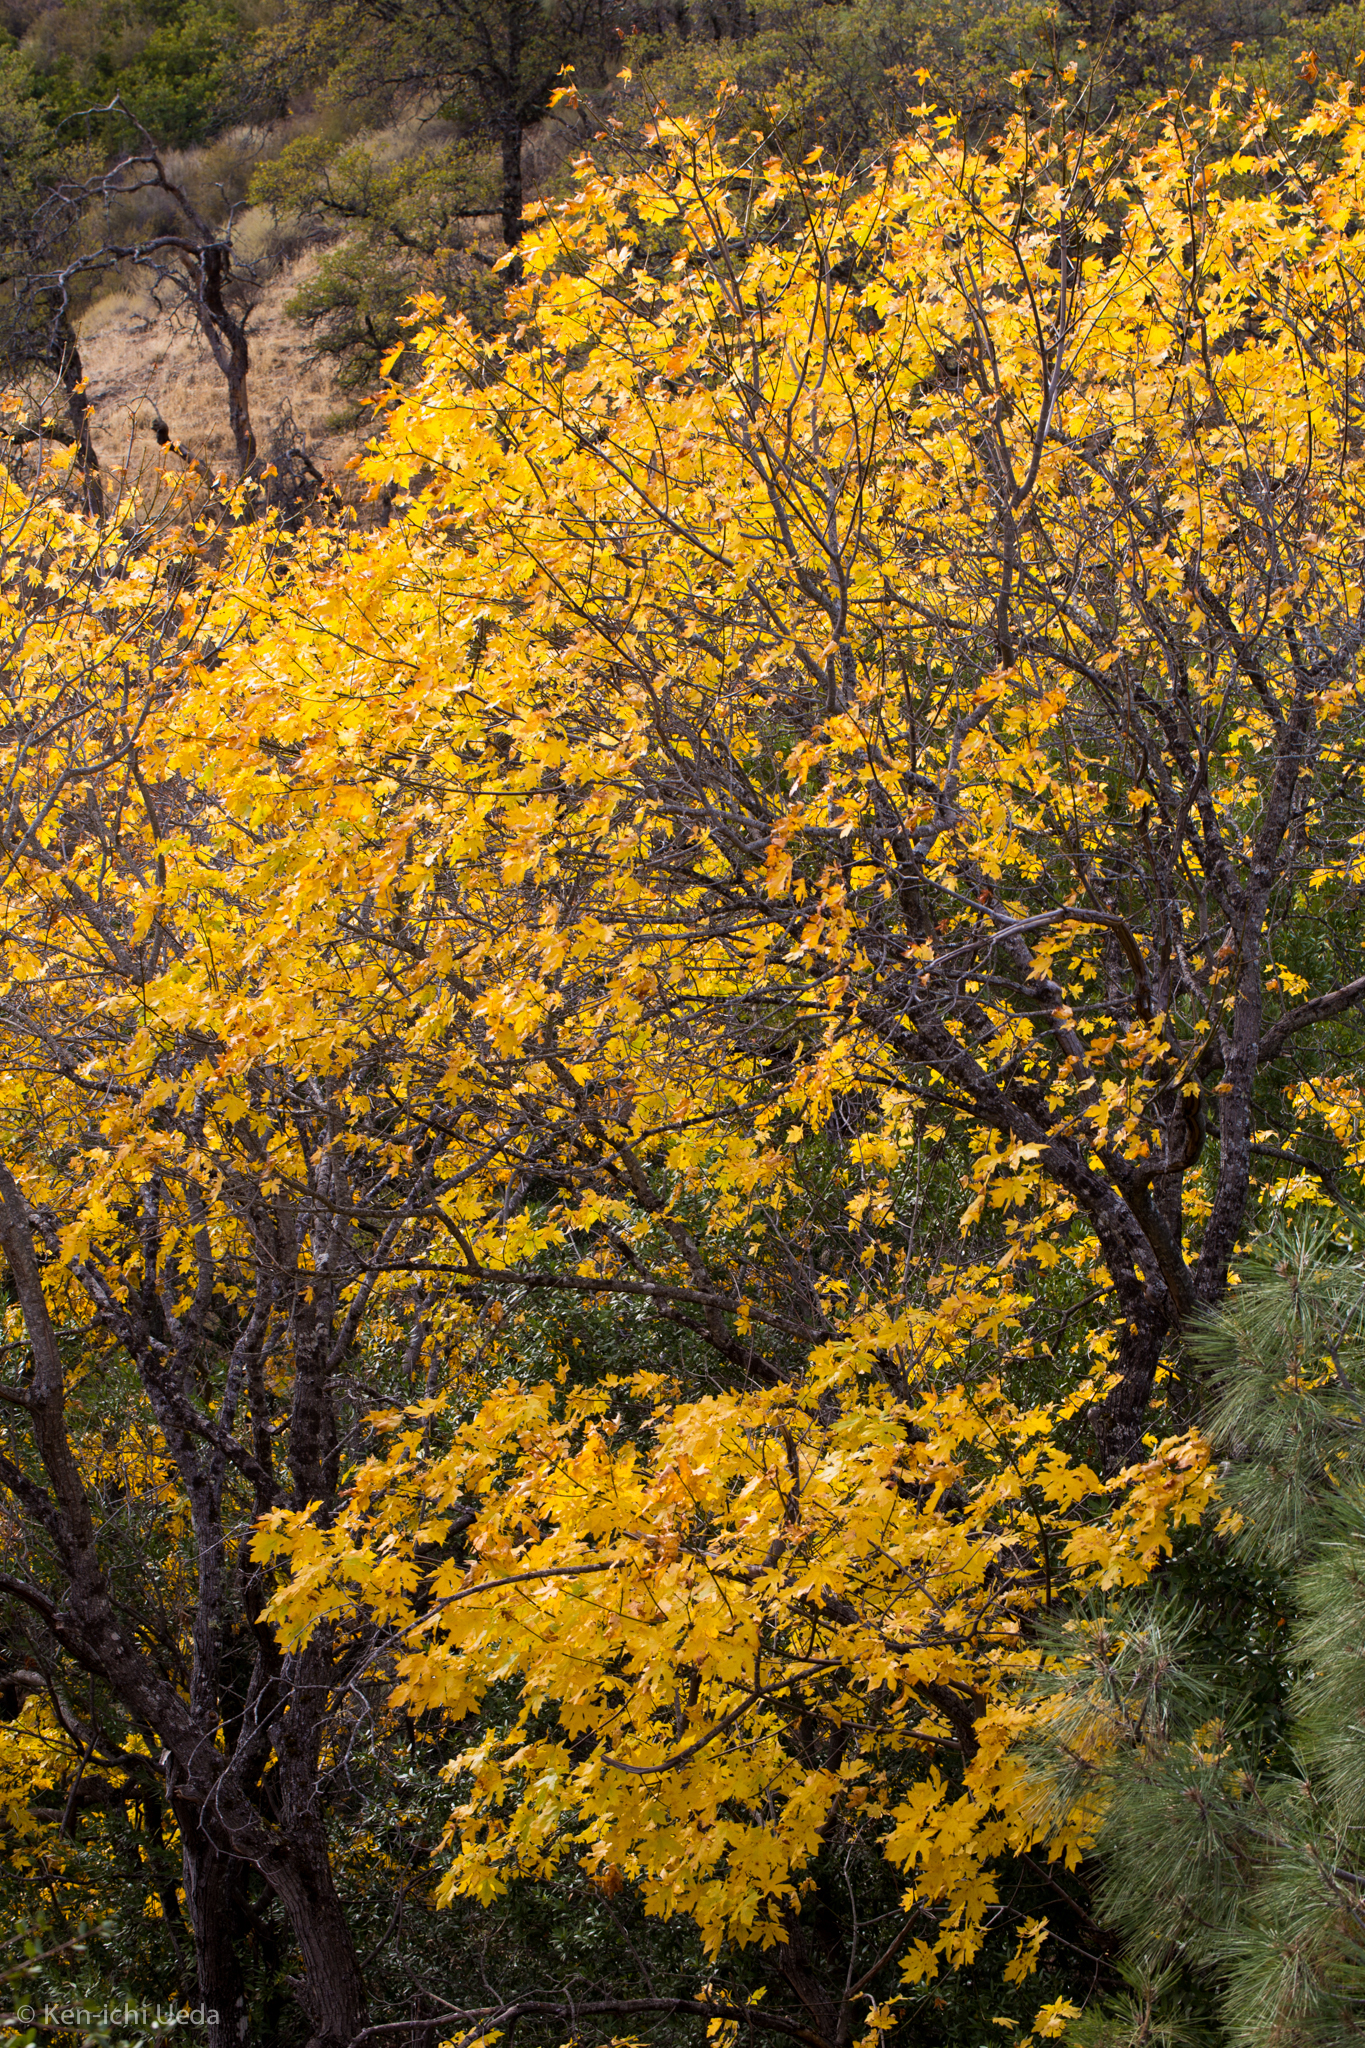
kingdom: Plantae
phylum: Tracheophyta
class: Magnoliopsida
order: Sapindales
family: Sapindaceae
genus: Acer
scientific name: Acer macrophyllum
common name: Oregon maple
